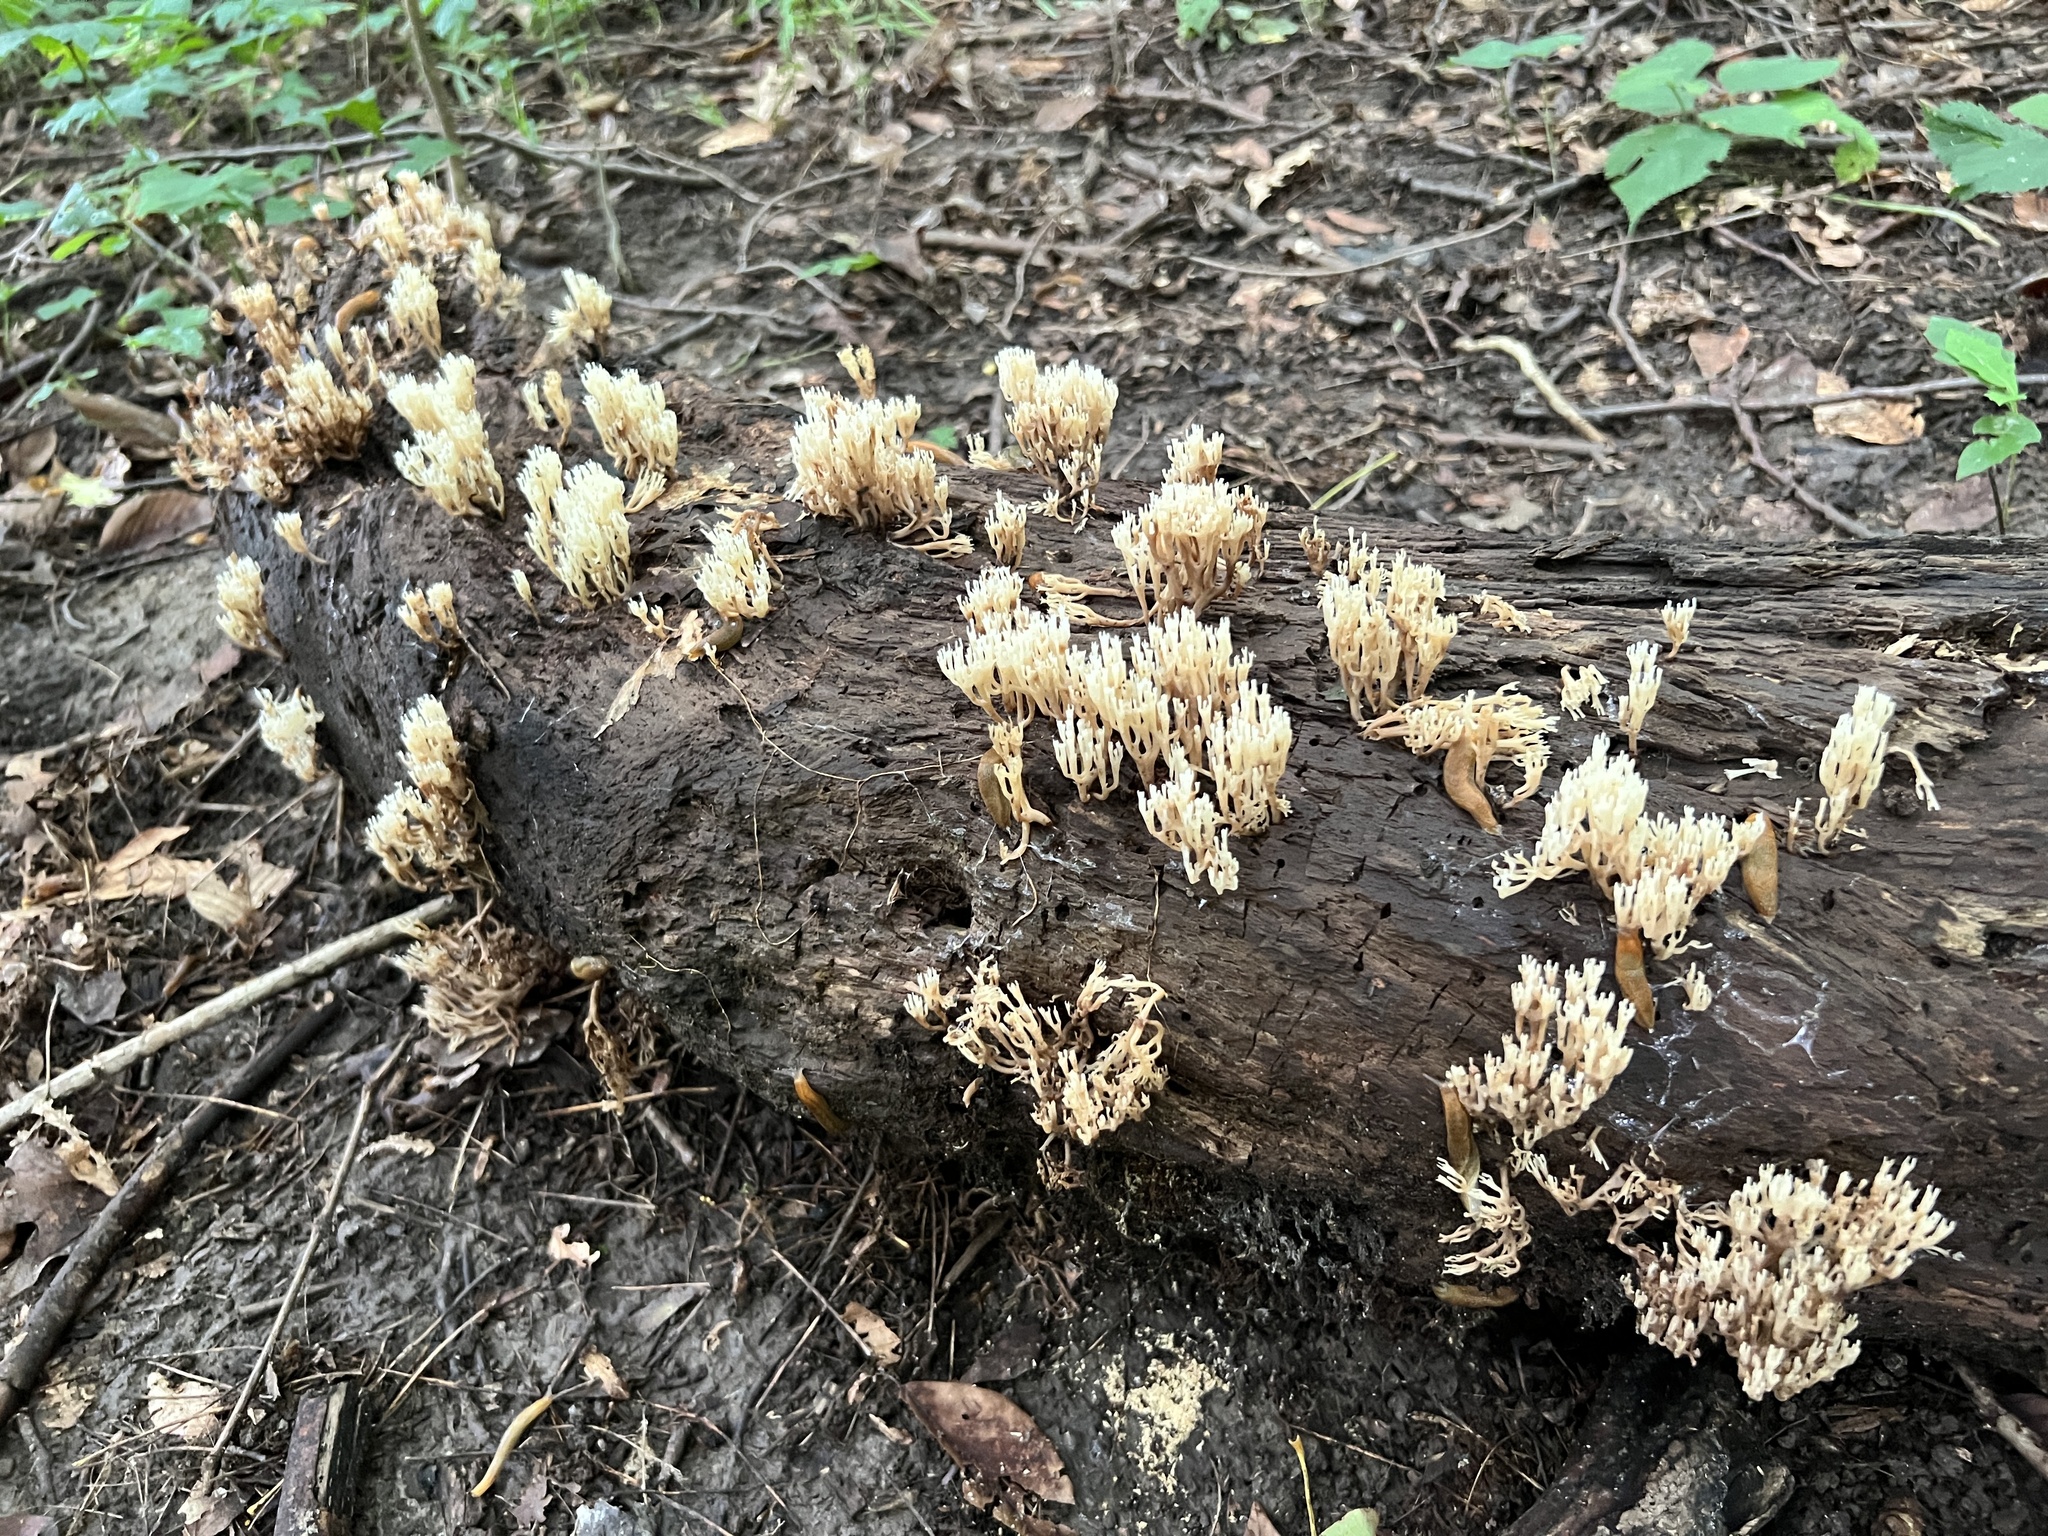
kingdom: Fungi
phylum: Basidiomycota
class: Agaricomycetes
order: Russulales
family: Auriscalpiaceae
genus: Artomyces
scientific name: Artomyces pyxidatus
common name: Crown-tipped coral fungus
